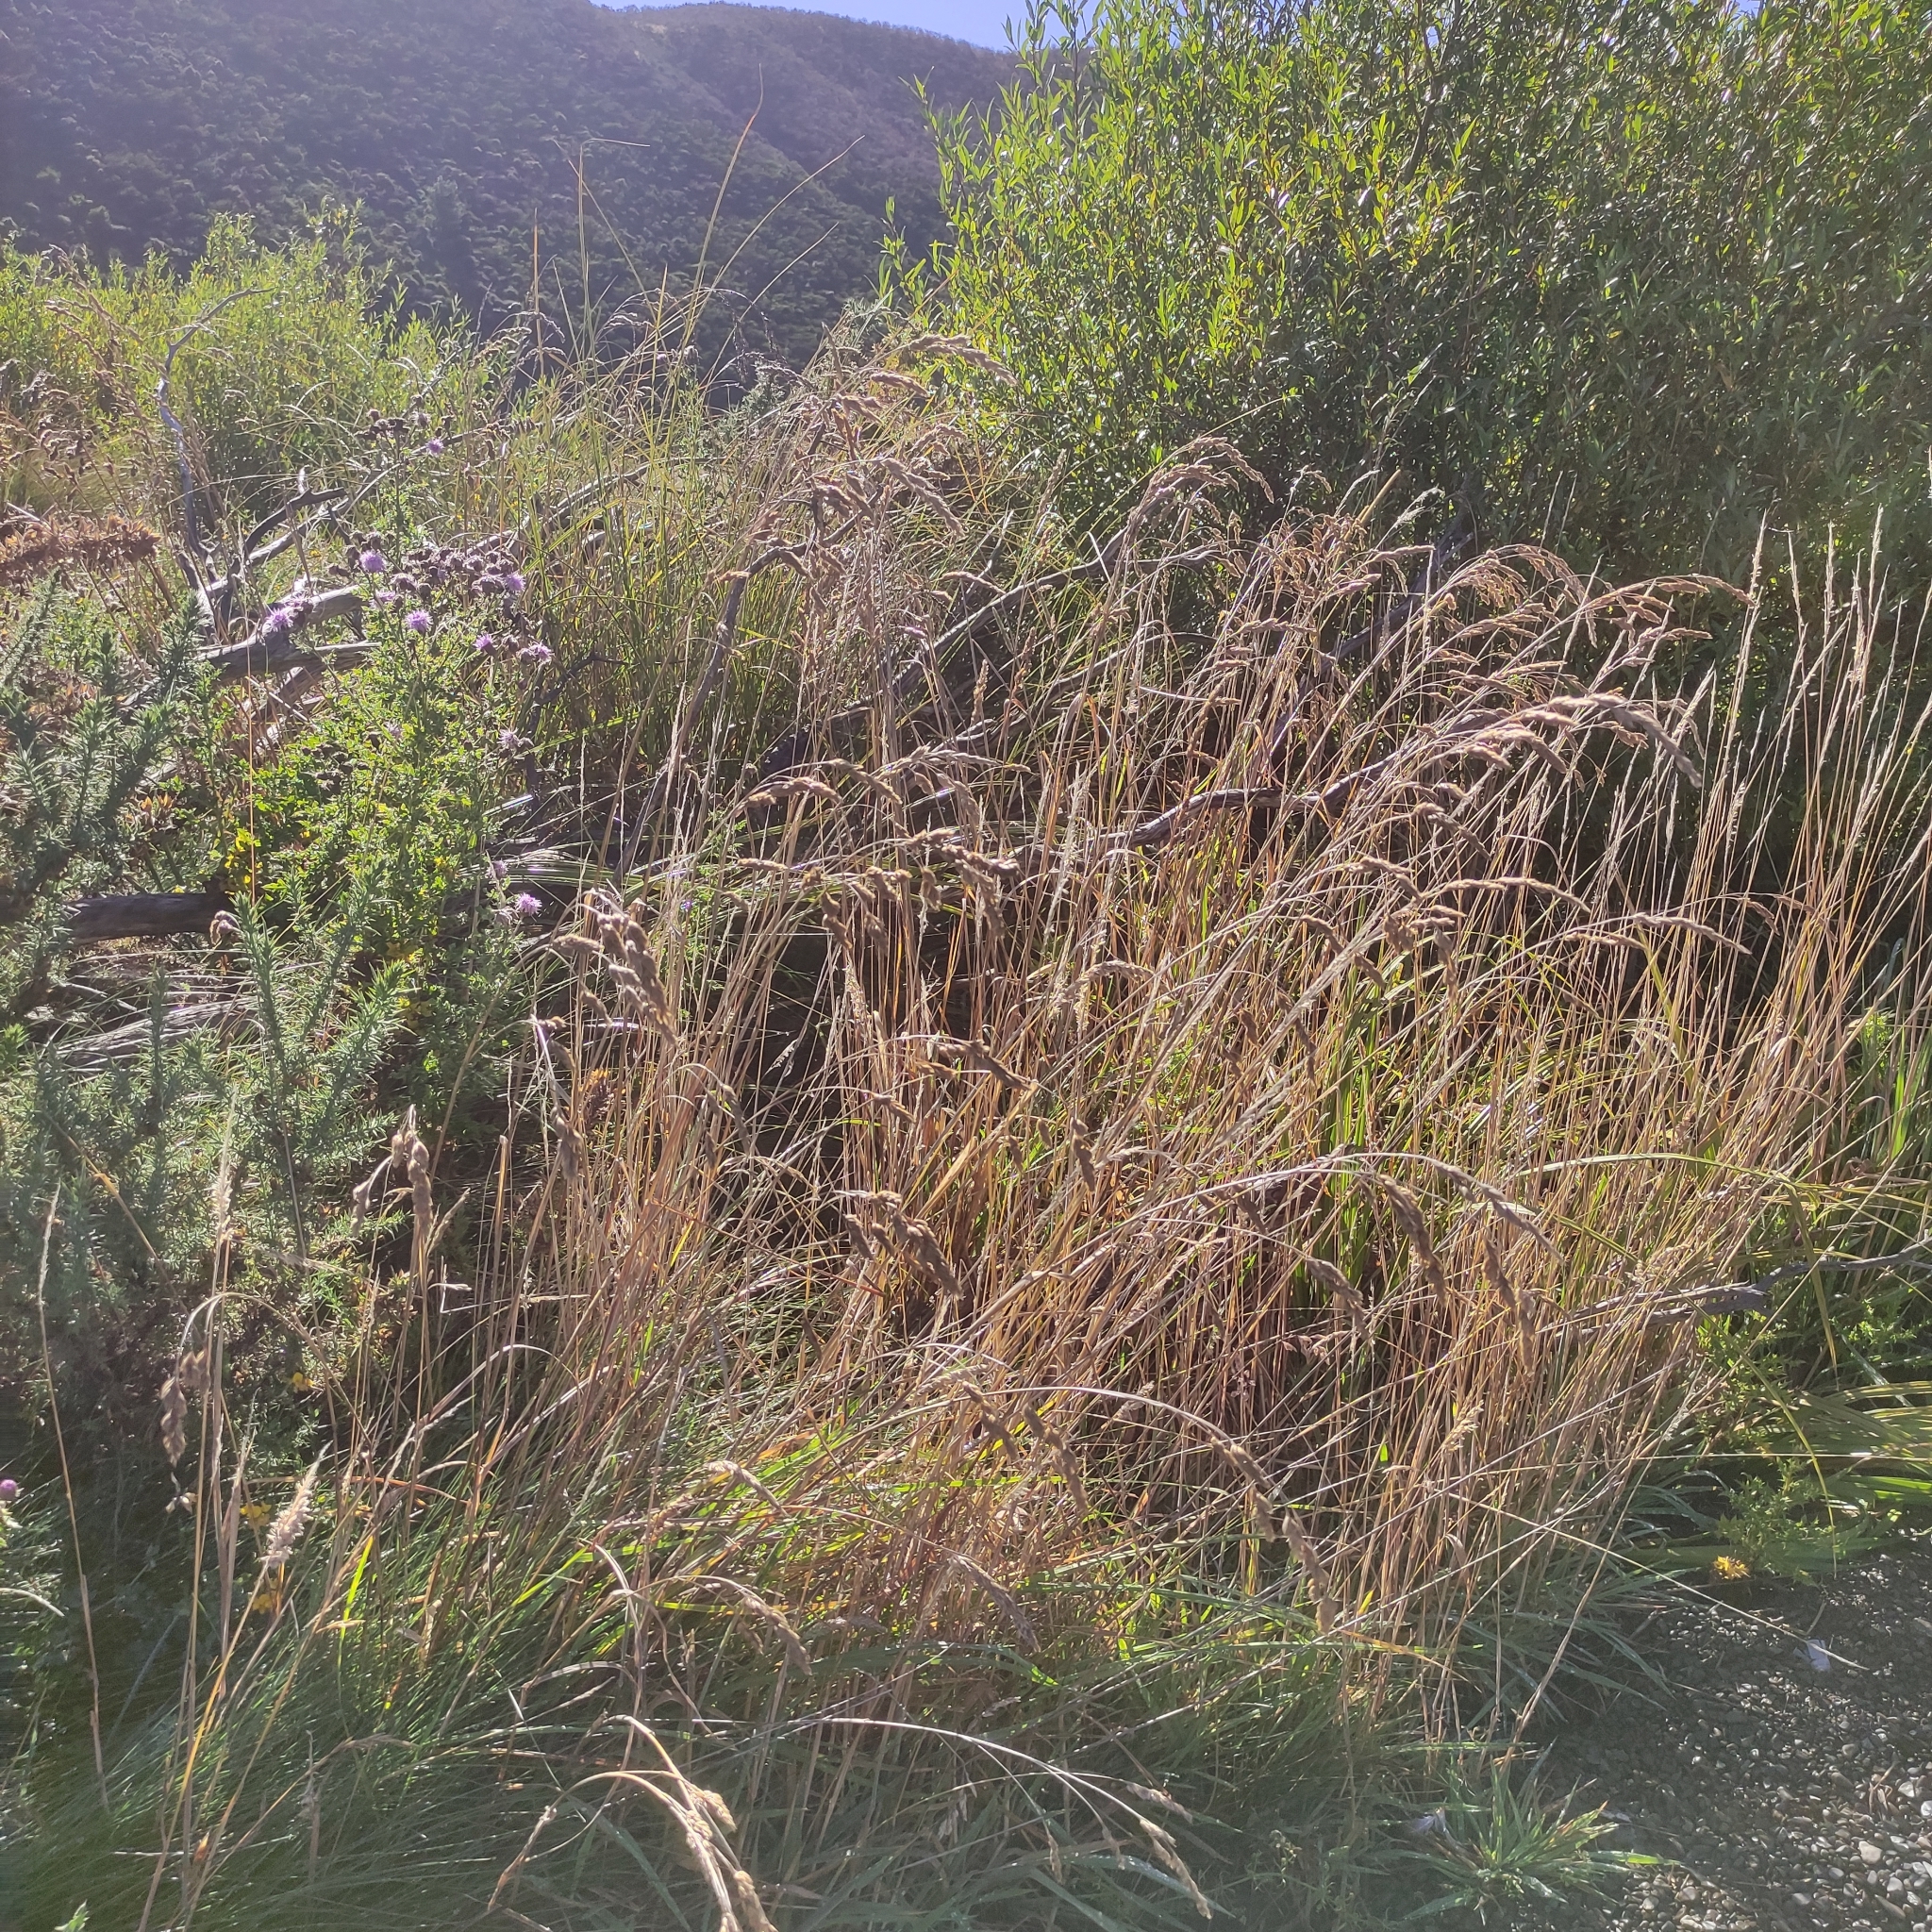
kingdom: Plantae
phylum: Tracheophyta
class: Liliopsida
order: Poales
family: Poaceae
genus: Dactylis
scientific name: Dactylis glomerata
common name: Orchardgrass
